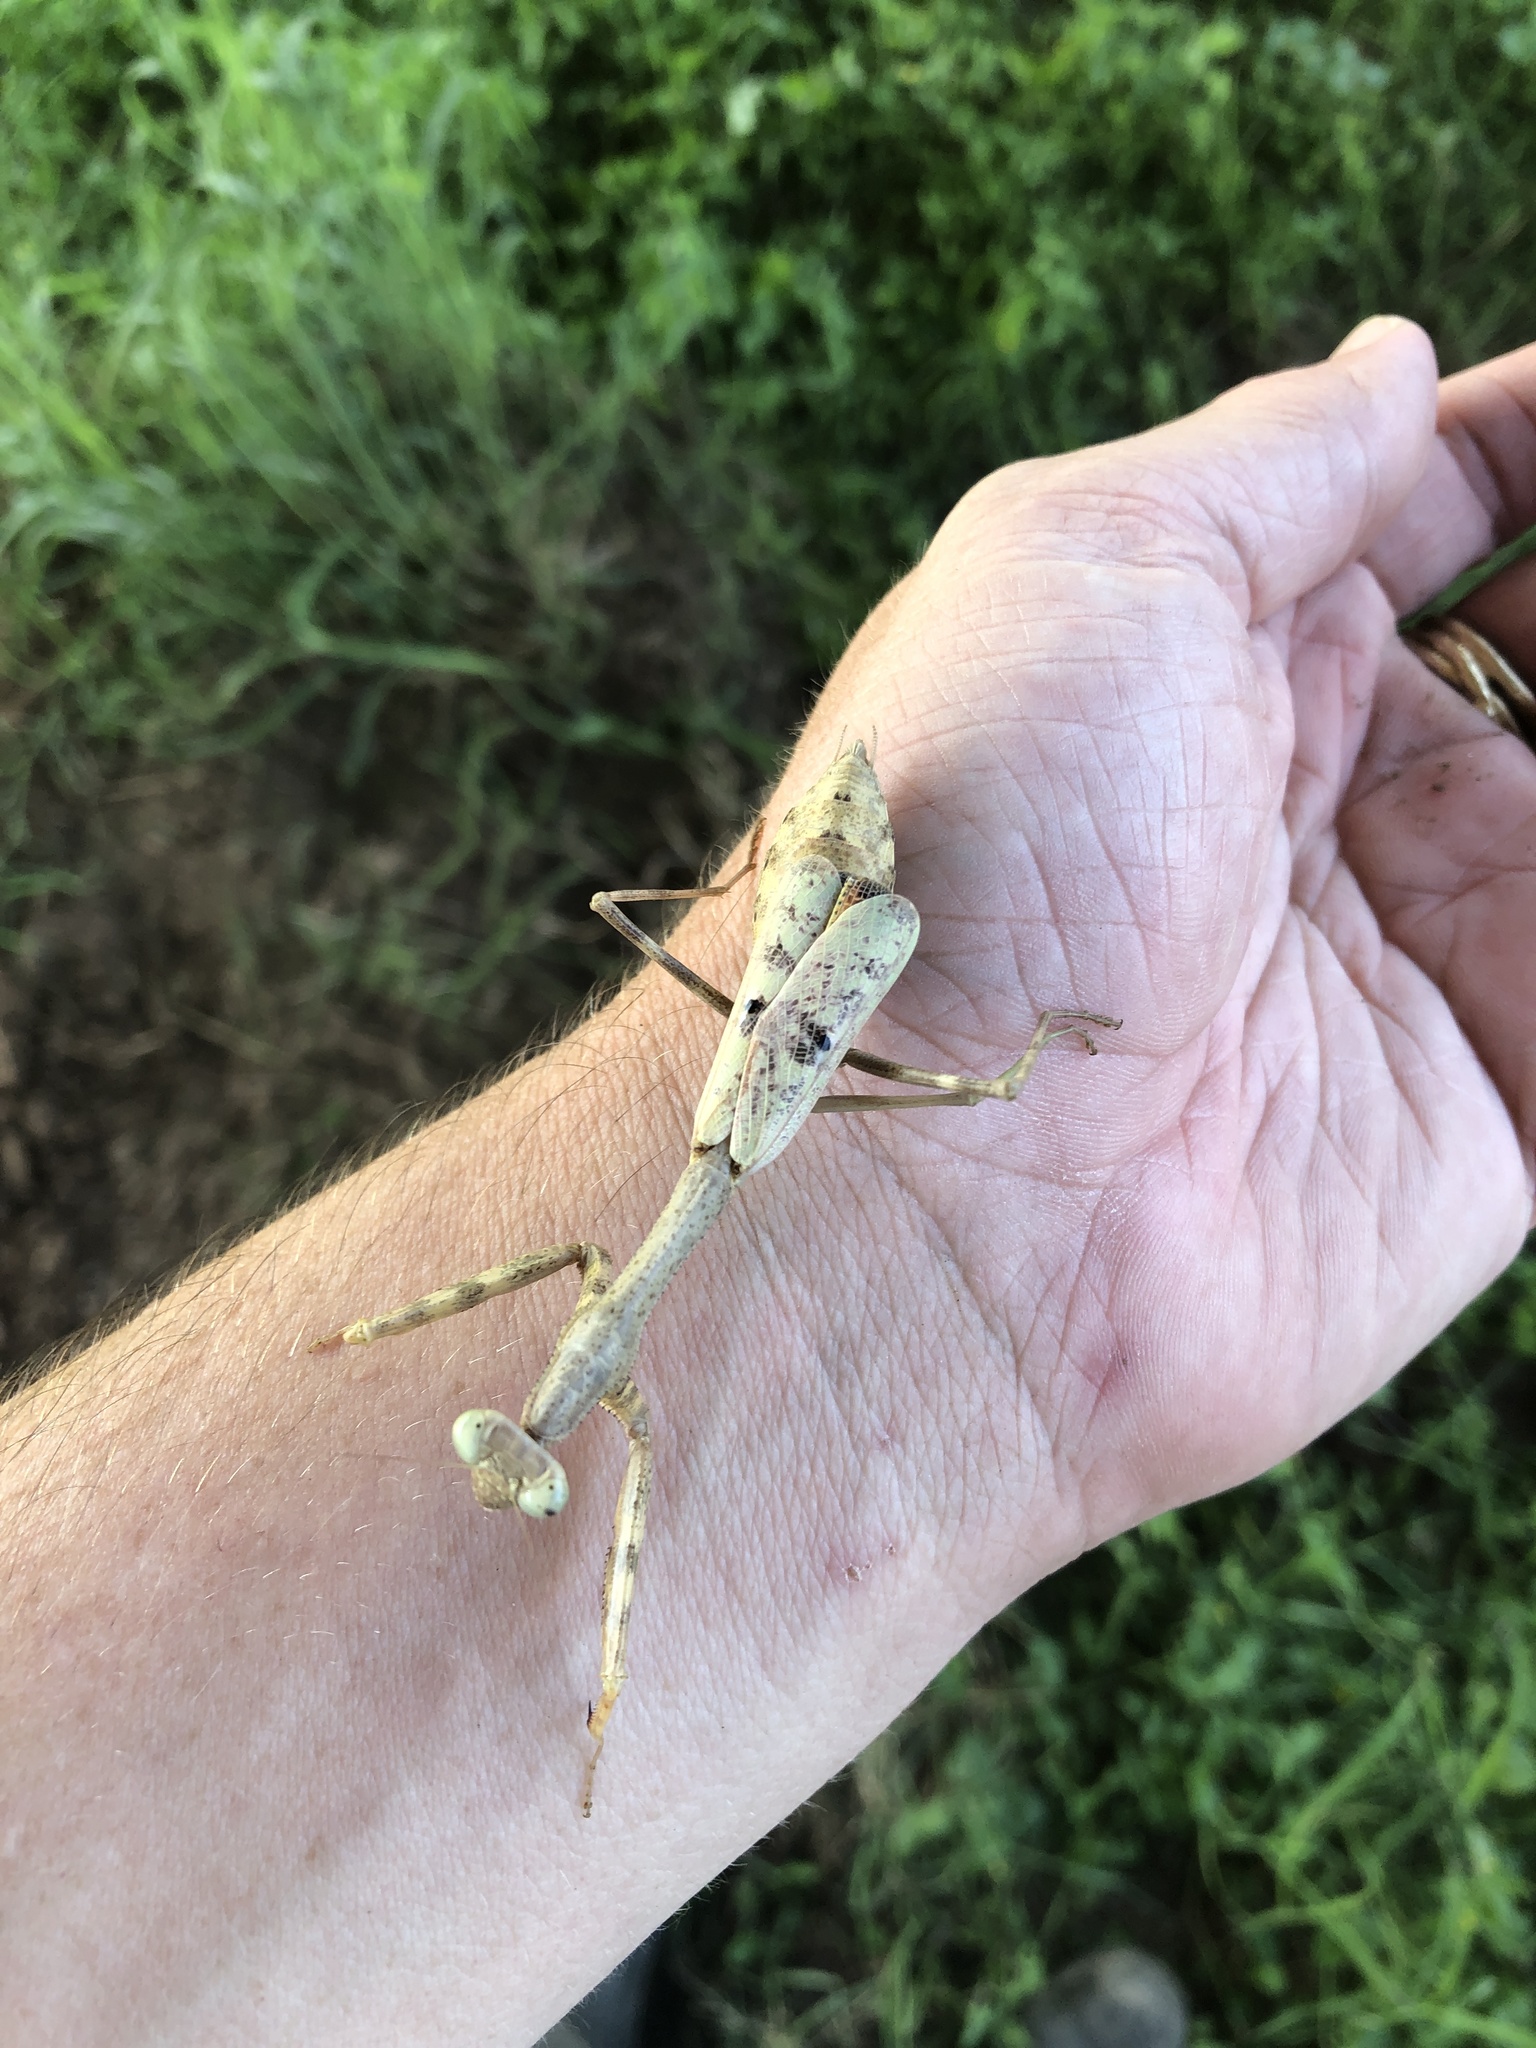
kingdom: Animalia
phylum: Arthropoda
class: Insecta
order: Mantodea
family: Mantidae
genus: Stagmomantis
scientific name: Stagmomantis carolina
